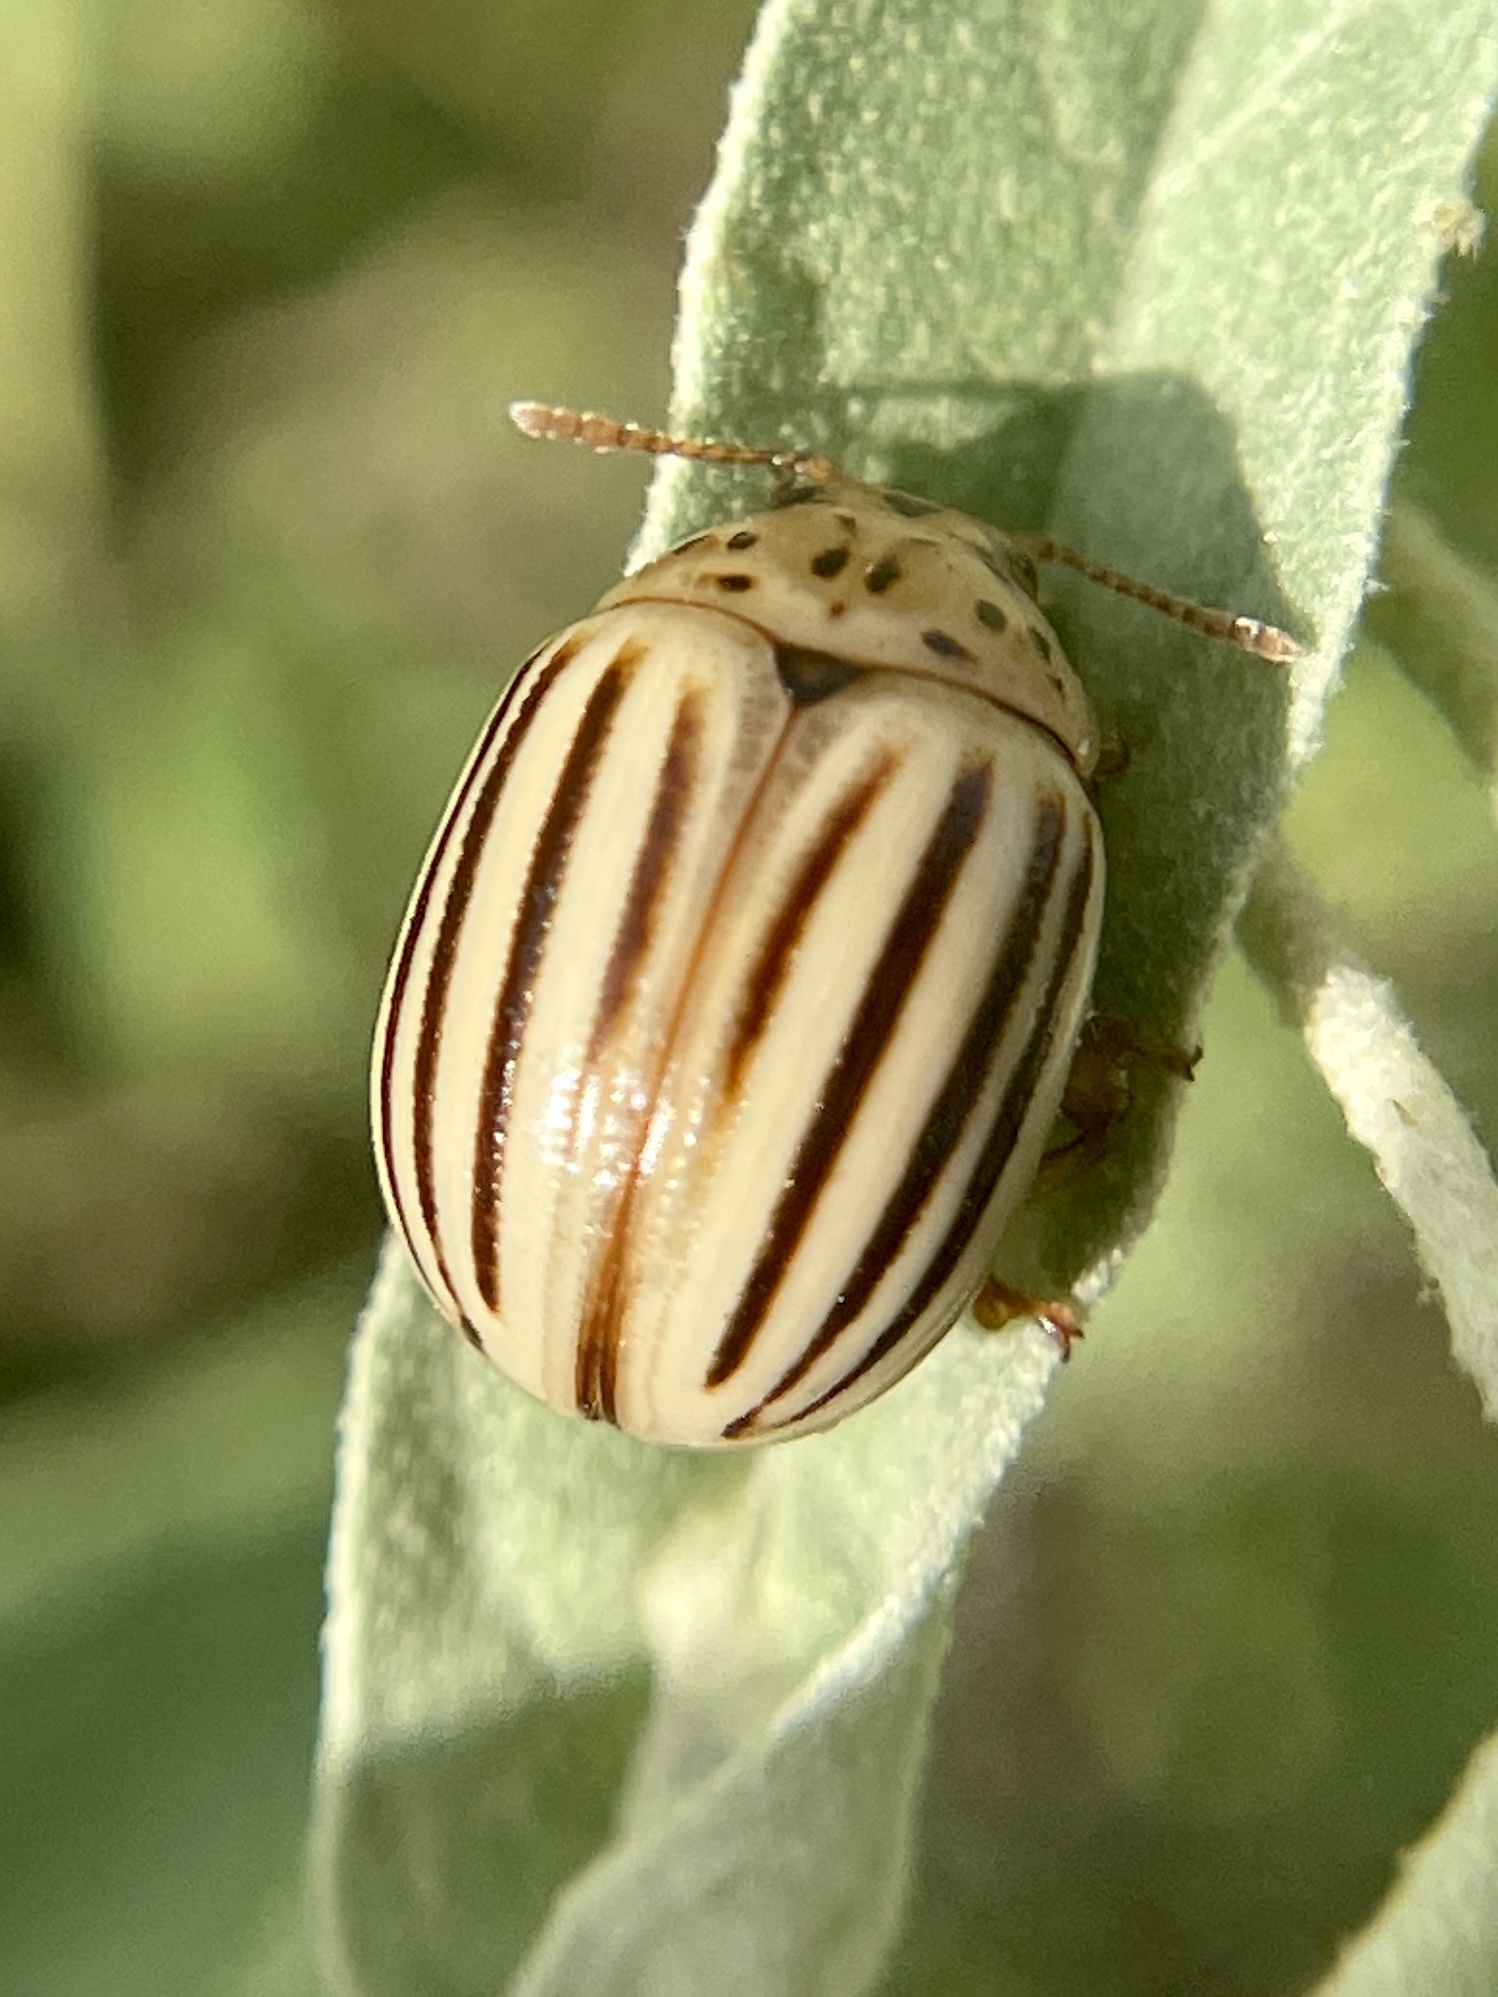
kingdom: Animalia
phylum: Arthropoda
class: Insecta
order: Coleoptera
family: Chrysomelidae
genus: Leptinotarsa
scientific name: Leptinotarsa texana
